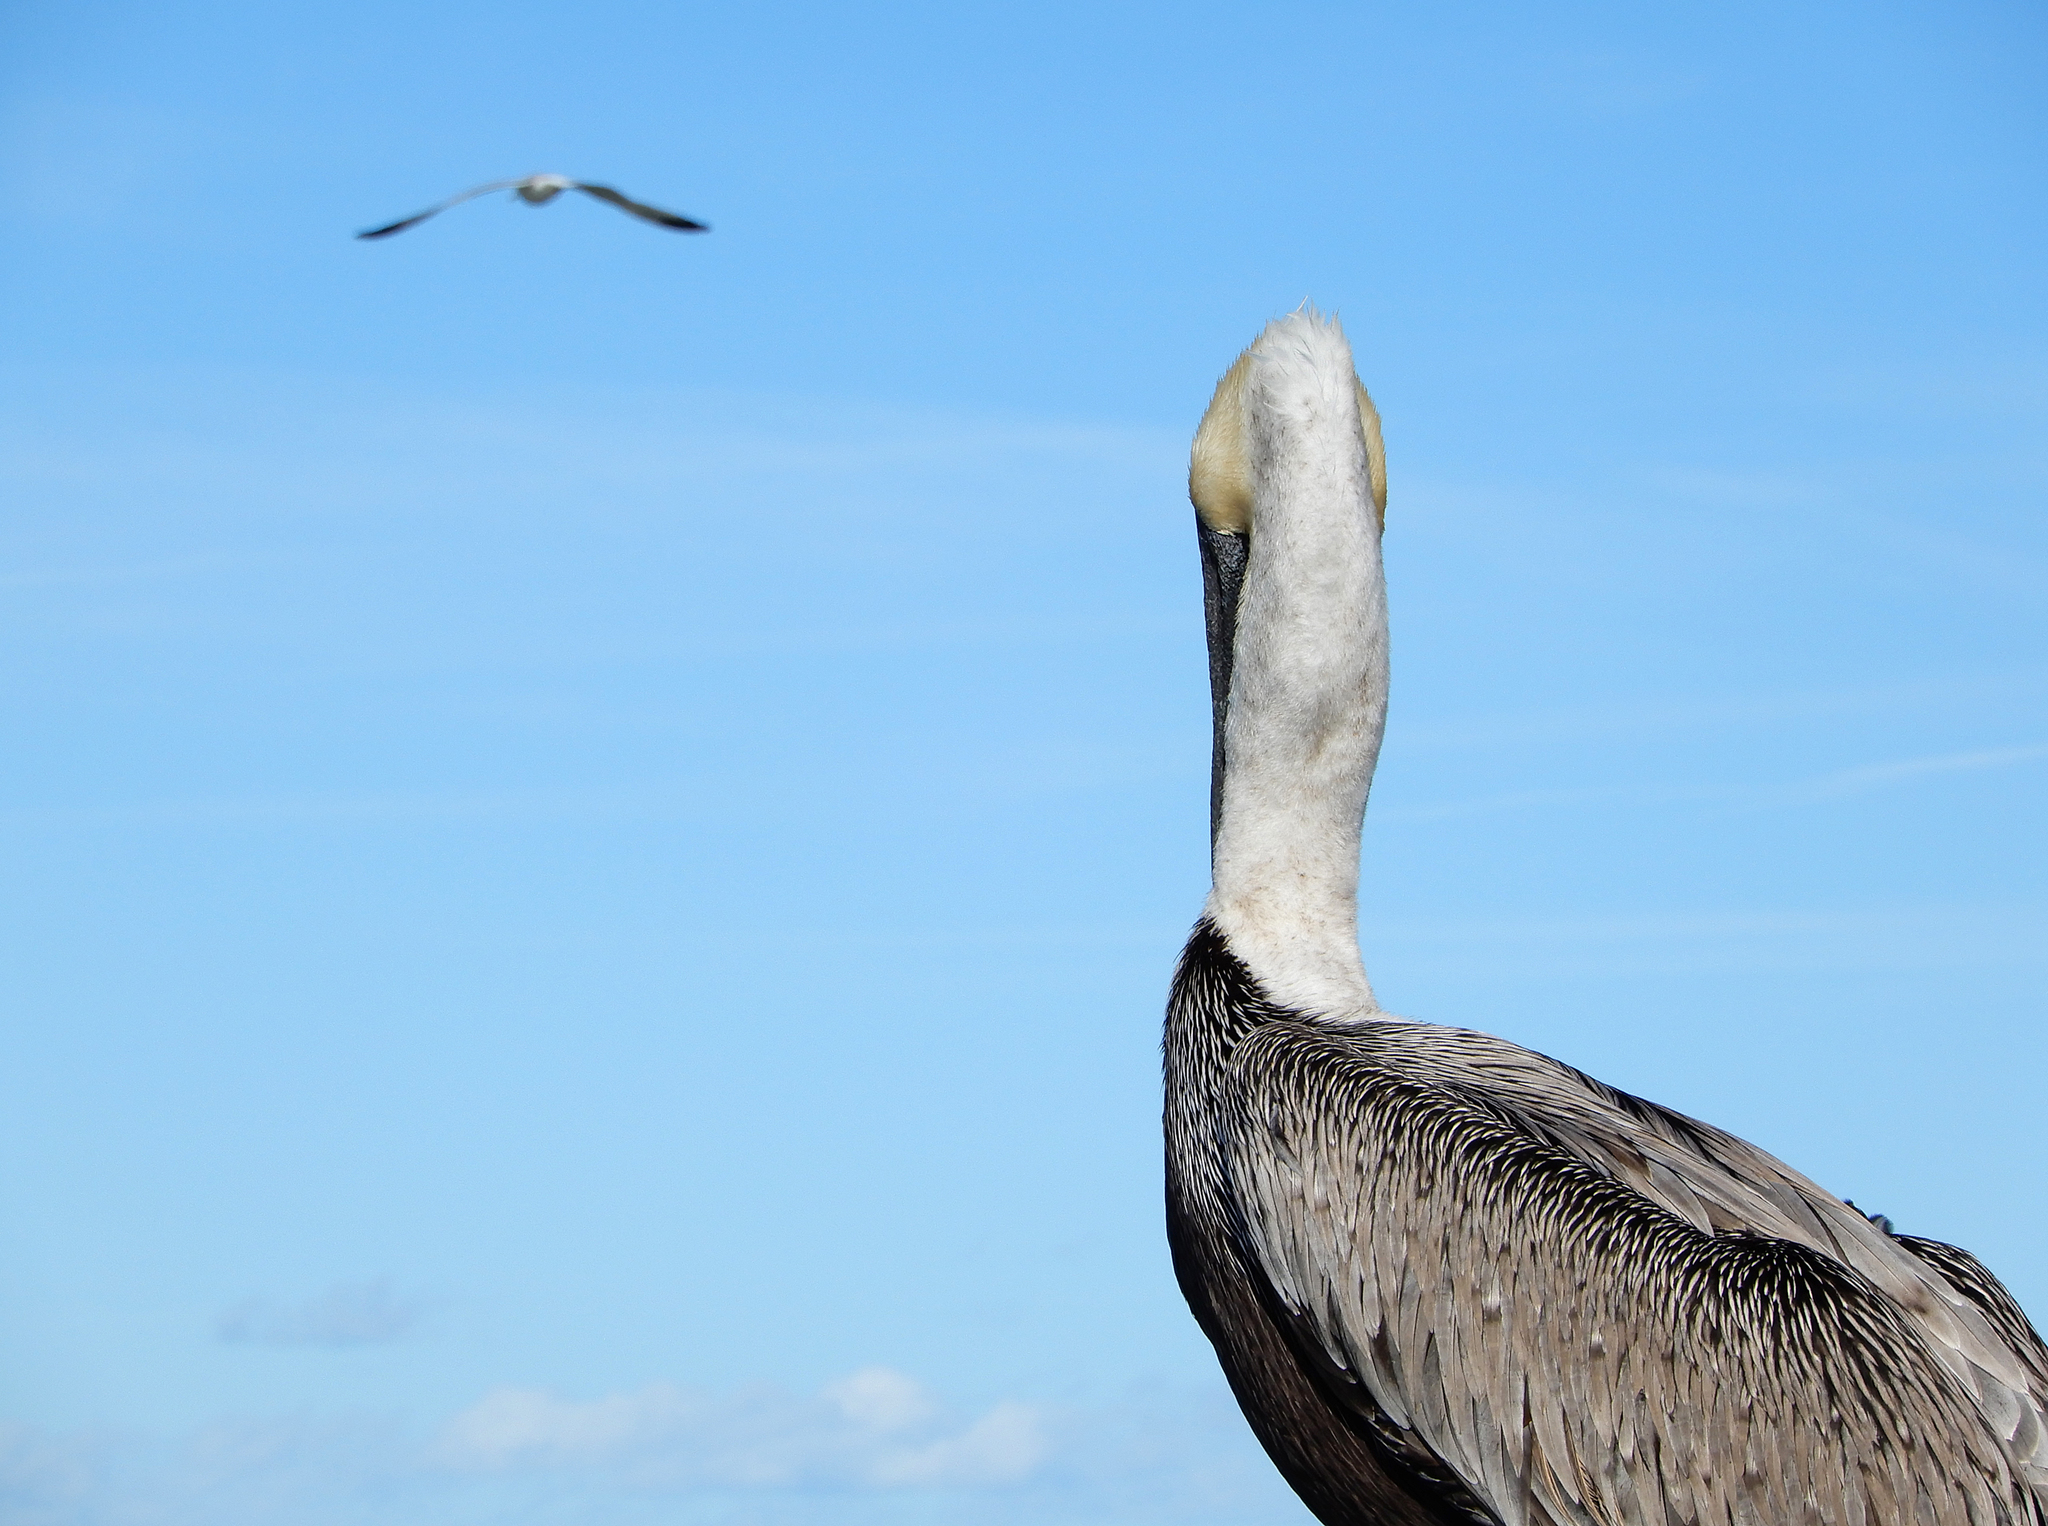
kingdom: Animalia
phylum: Chordata
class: Aves
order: Pelecaniformes
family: Pelecanidae
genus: Pelecanus
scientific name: Pelecanus occidentalis
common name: Brown pelican
